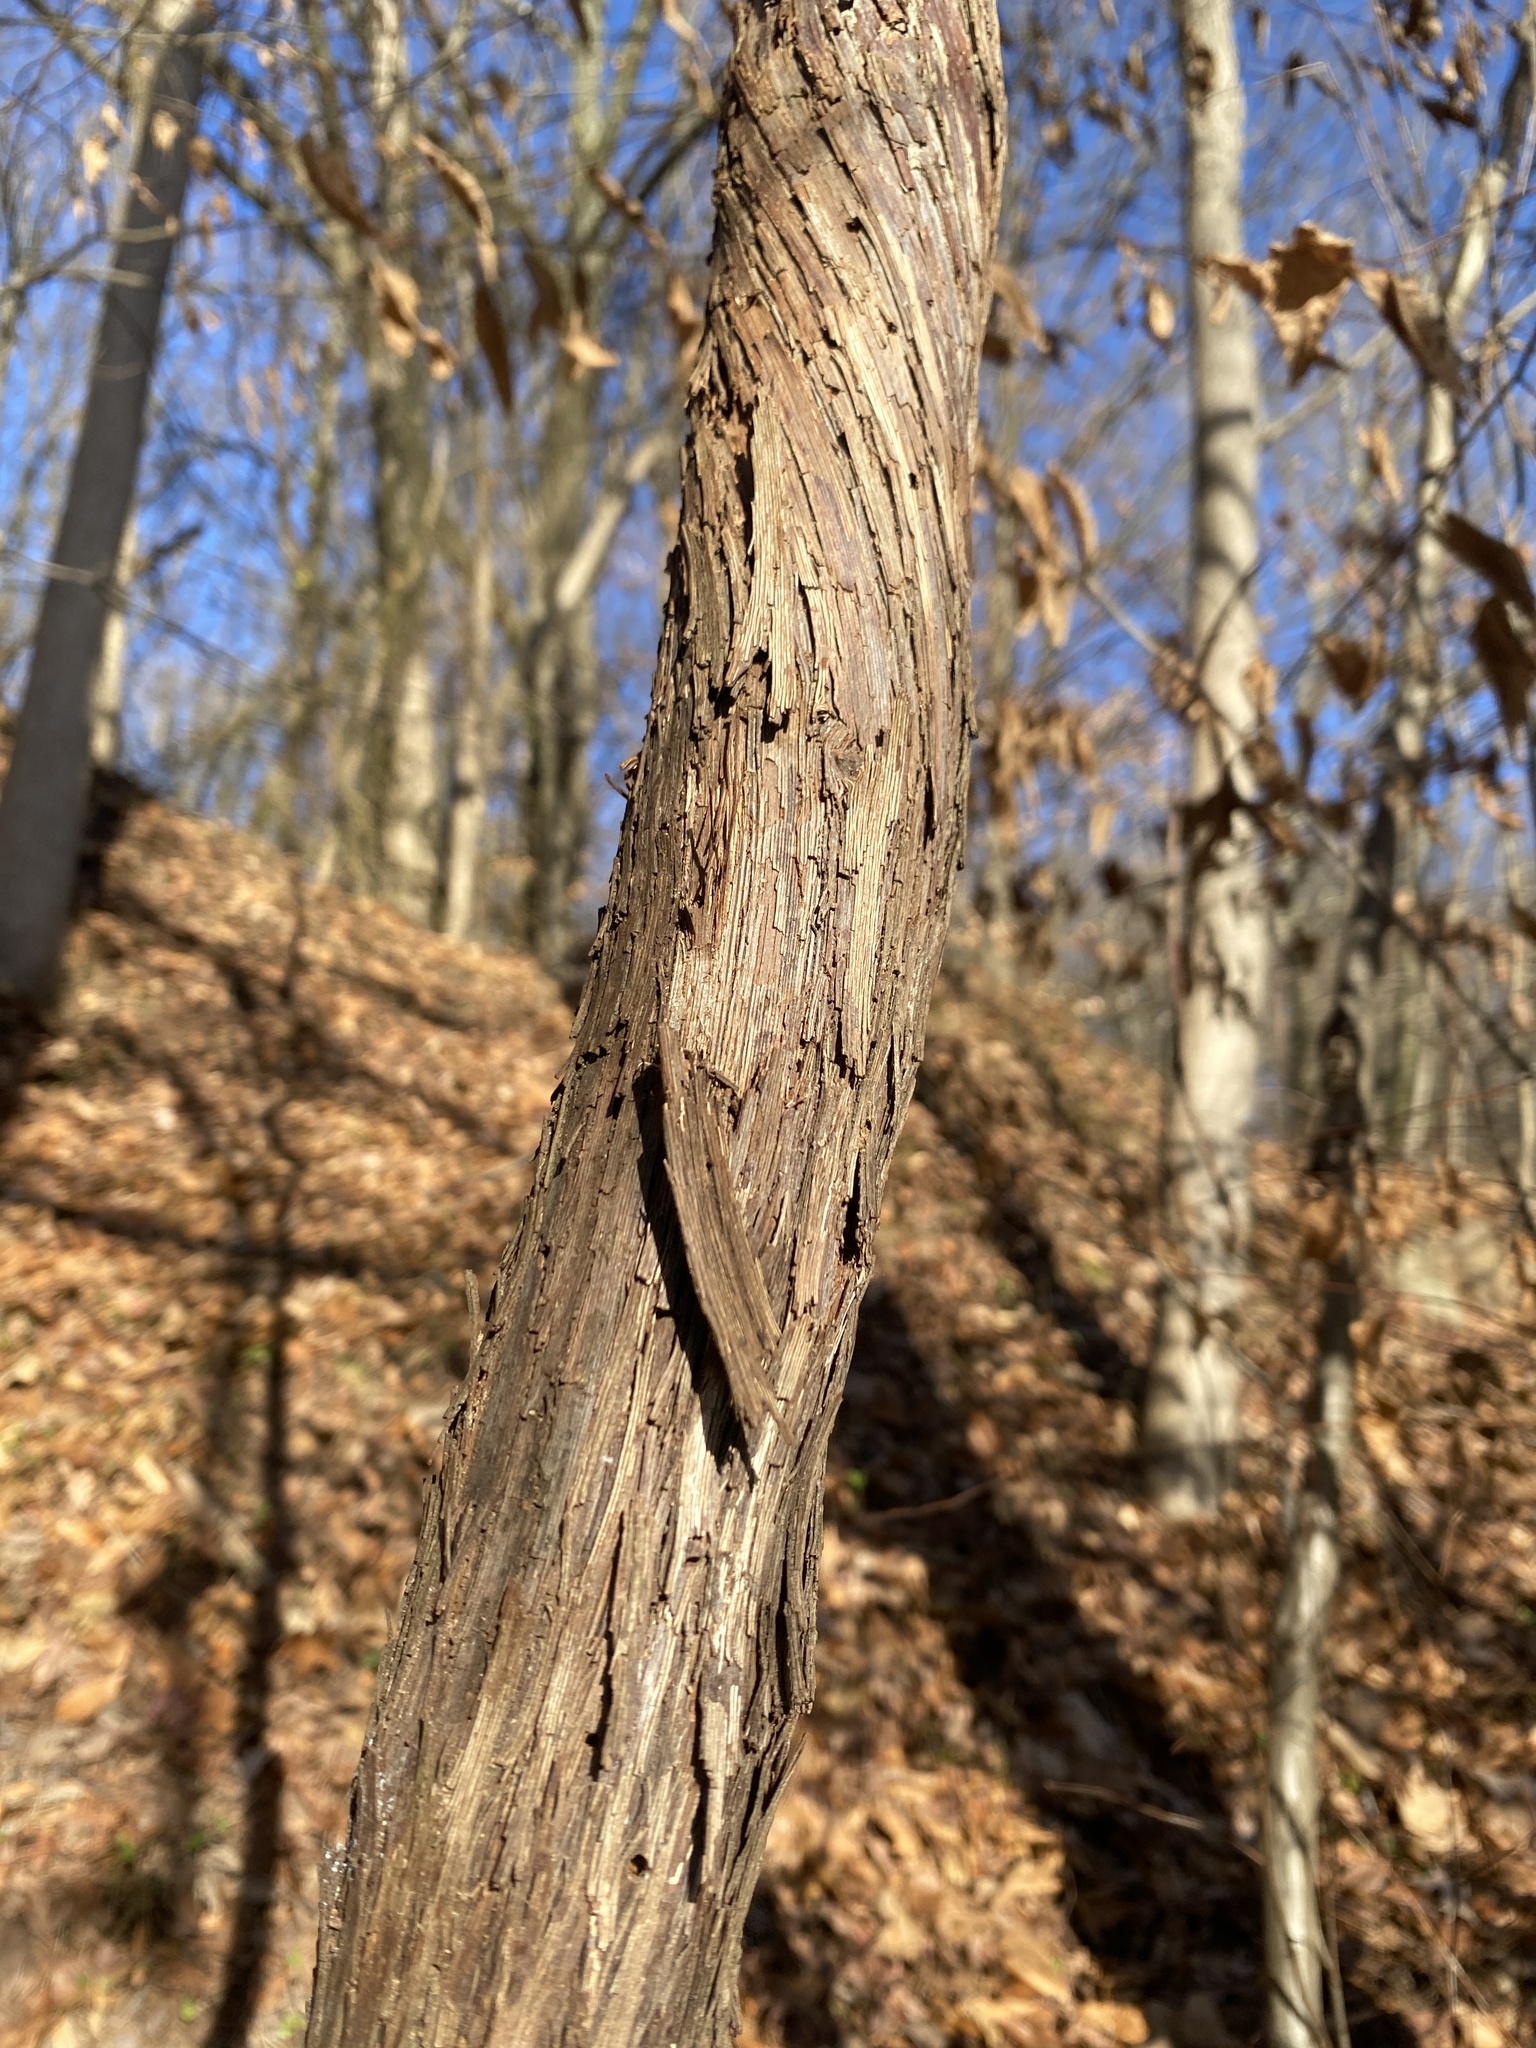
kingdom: Plantae
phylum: Tracheophyta
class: Magnoliopsida
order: Vitales
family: Vitaceae
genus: Vitis
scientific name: Vitis
